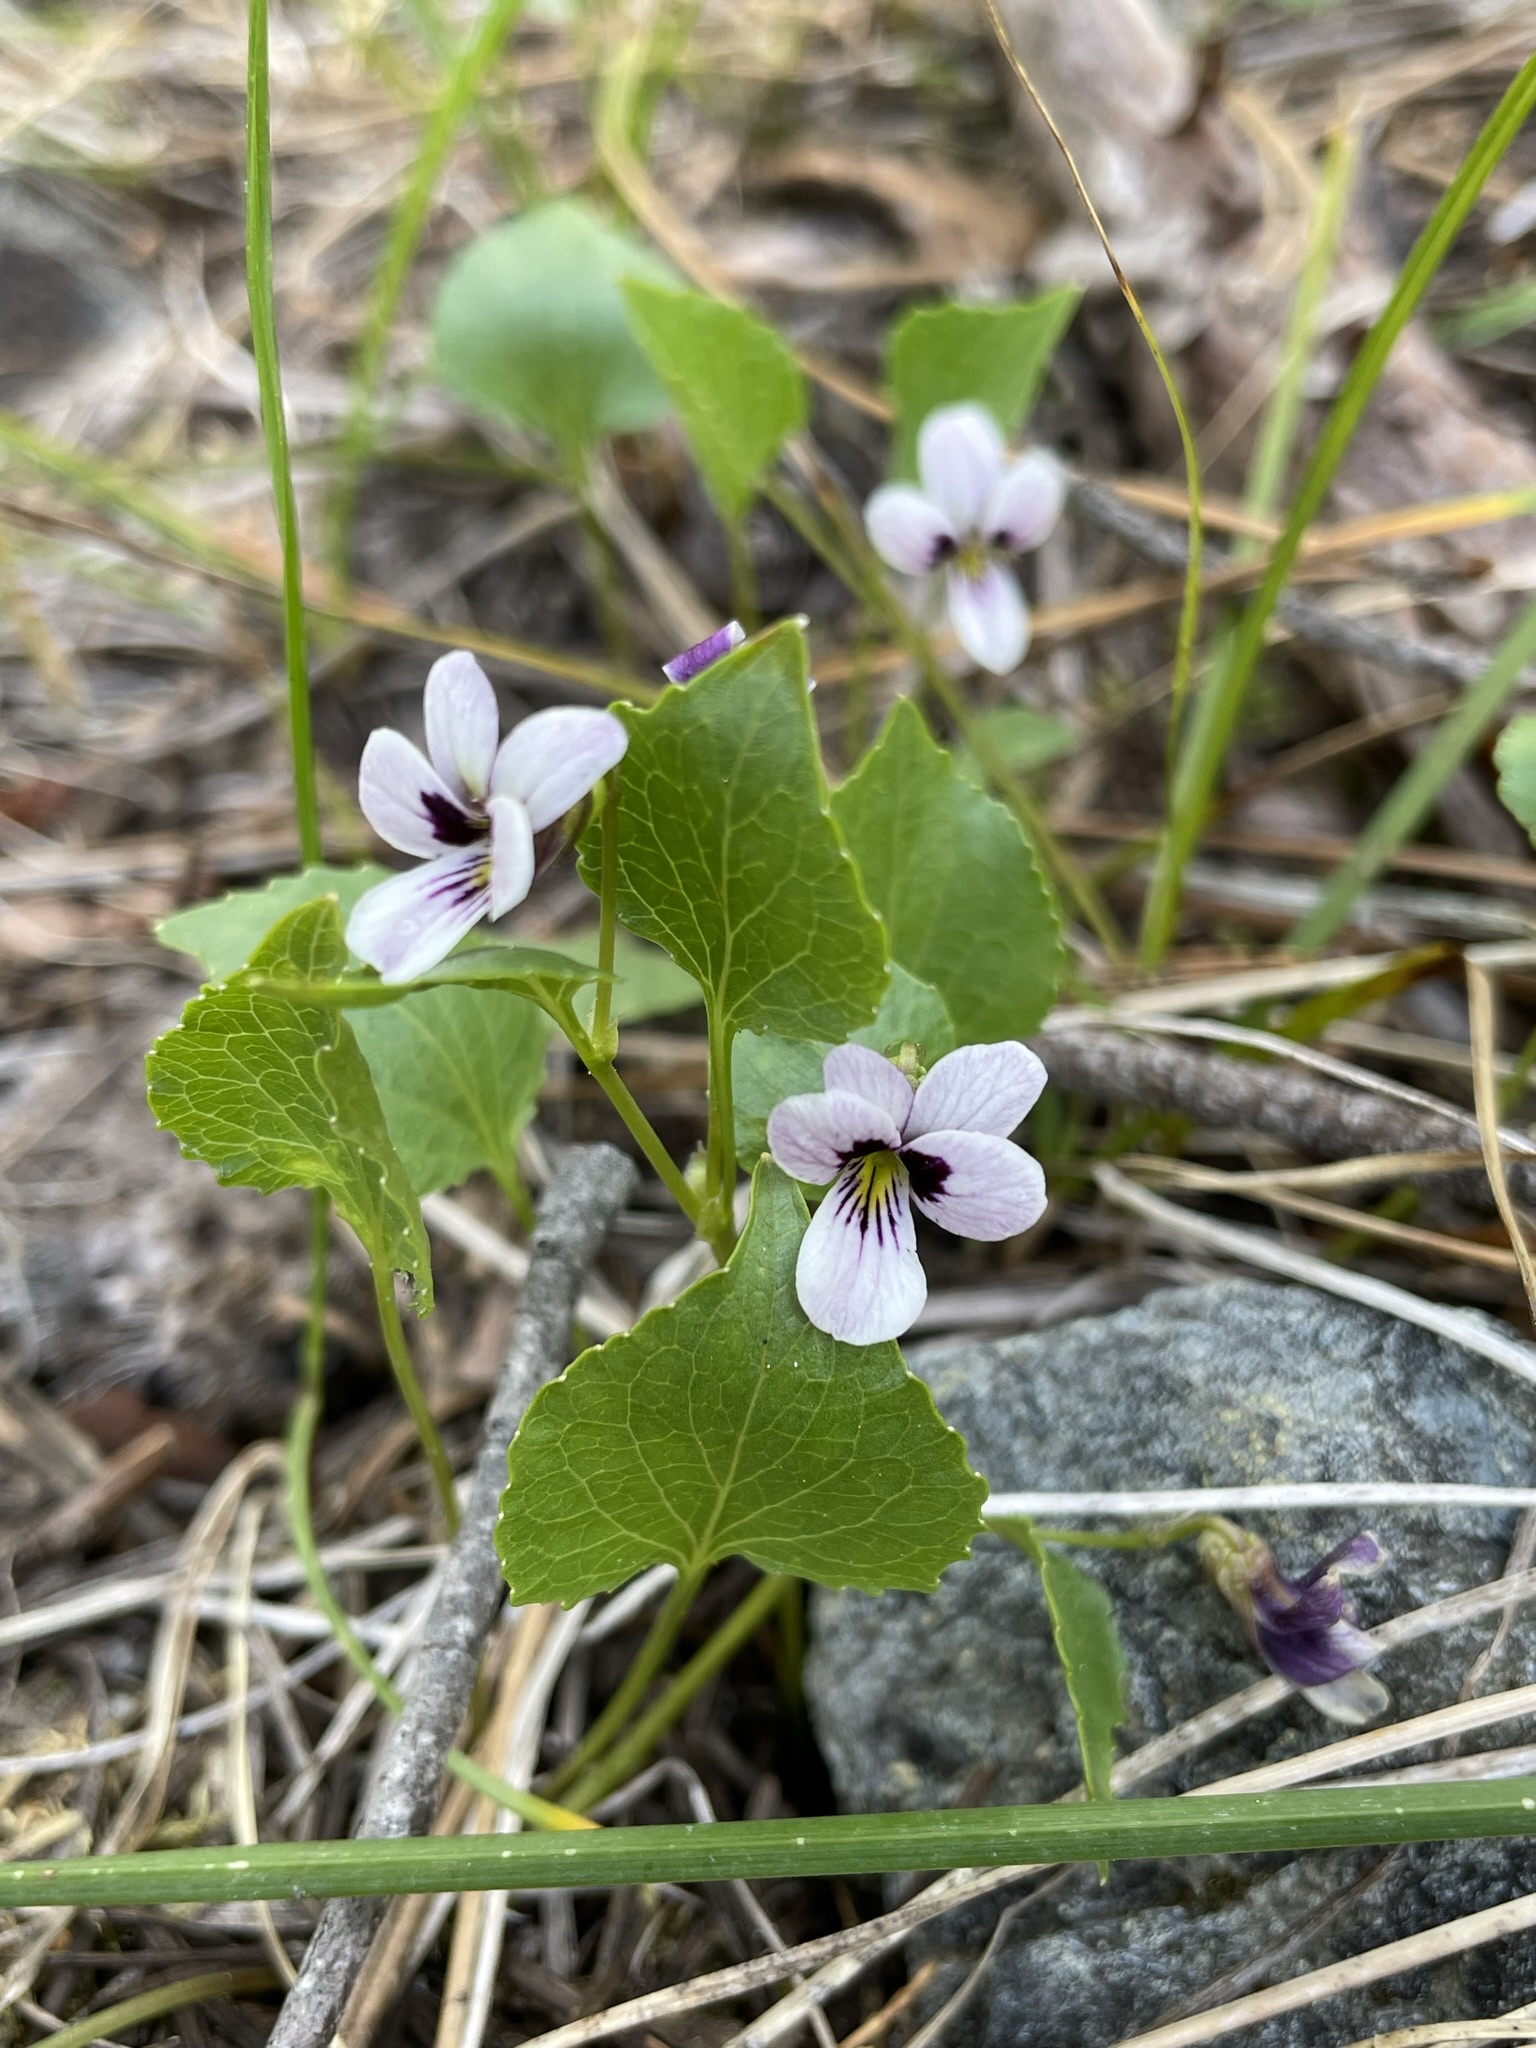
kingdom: Plantae
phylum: Tracheophyta
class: Magnoliopsida
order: Malpighiales
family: Violaceae
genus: Viola
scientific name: Viola cuneata
